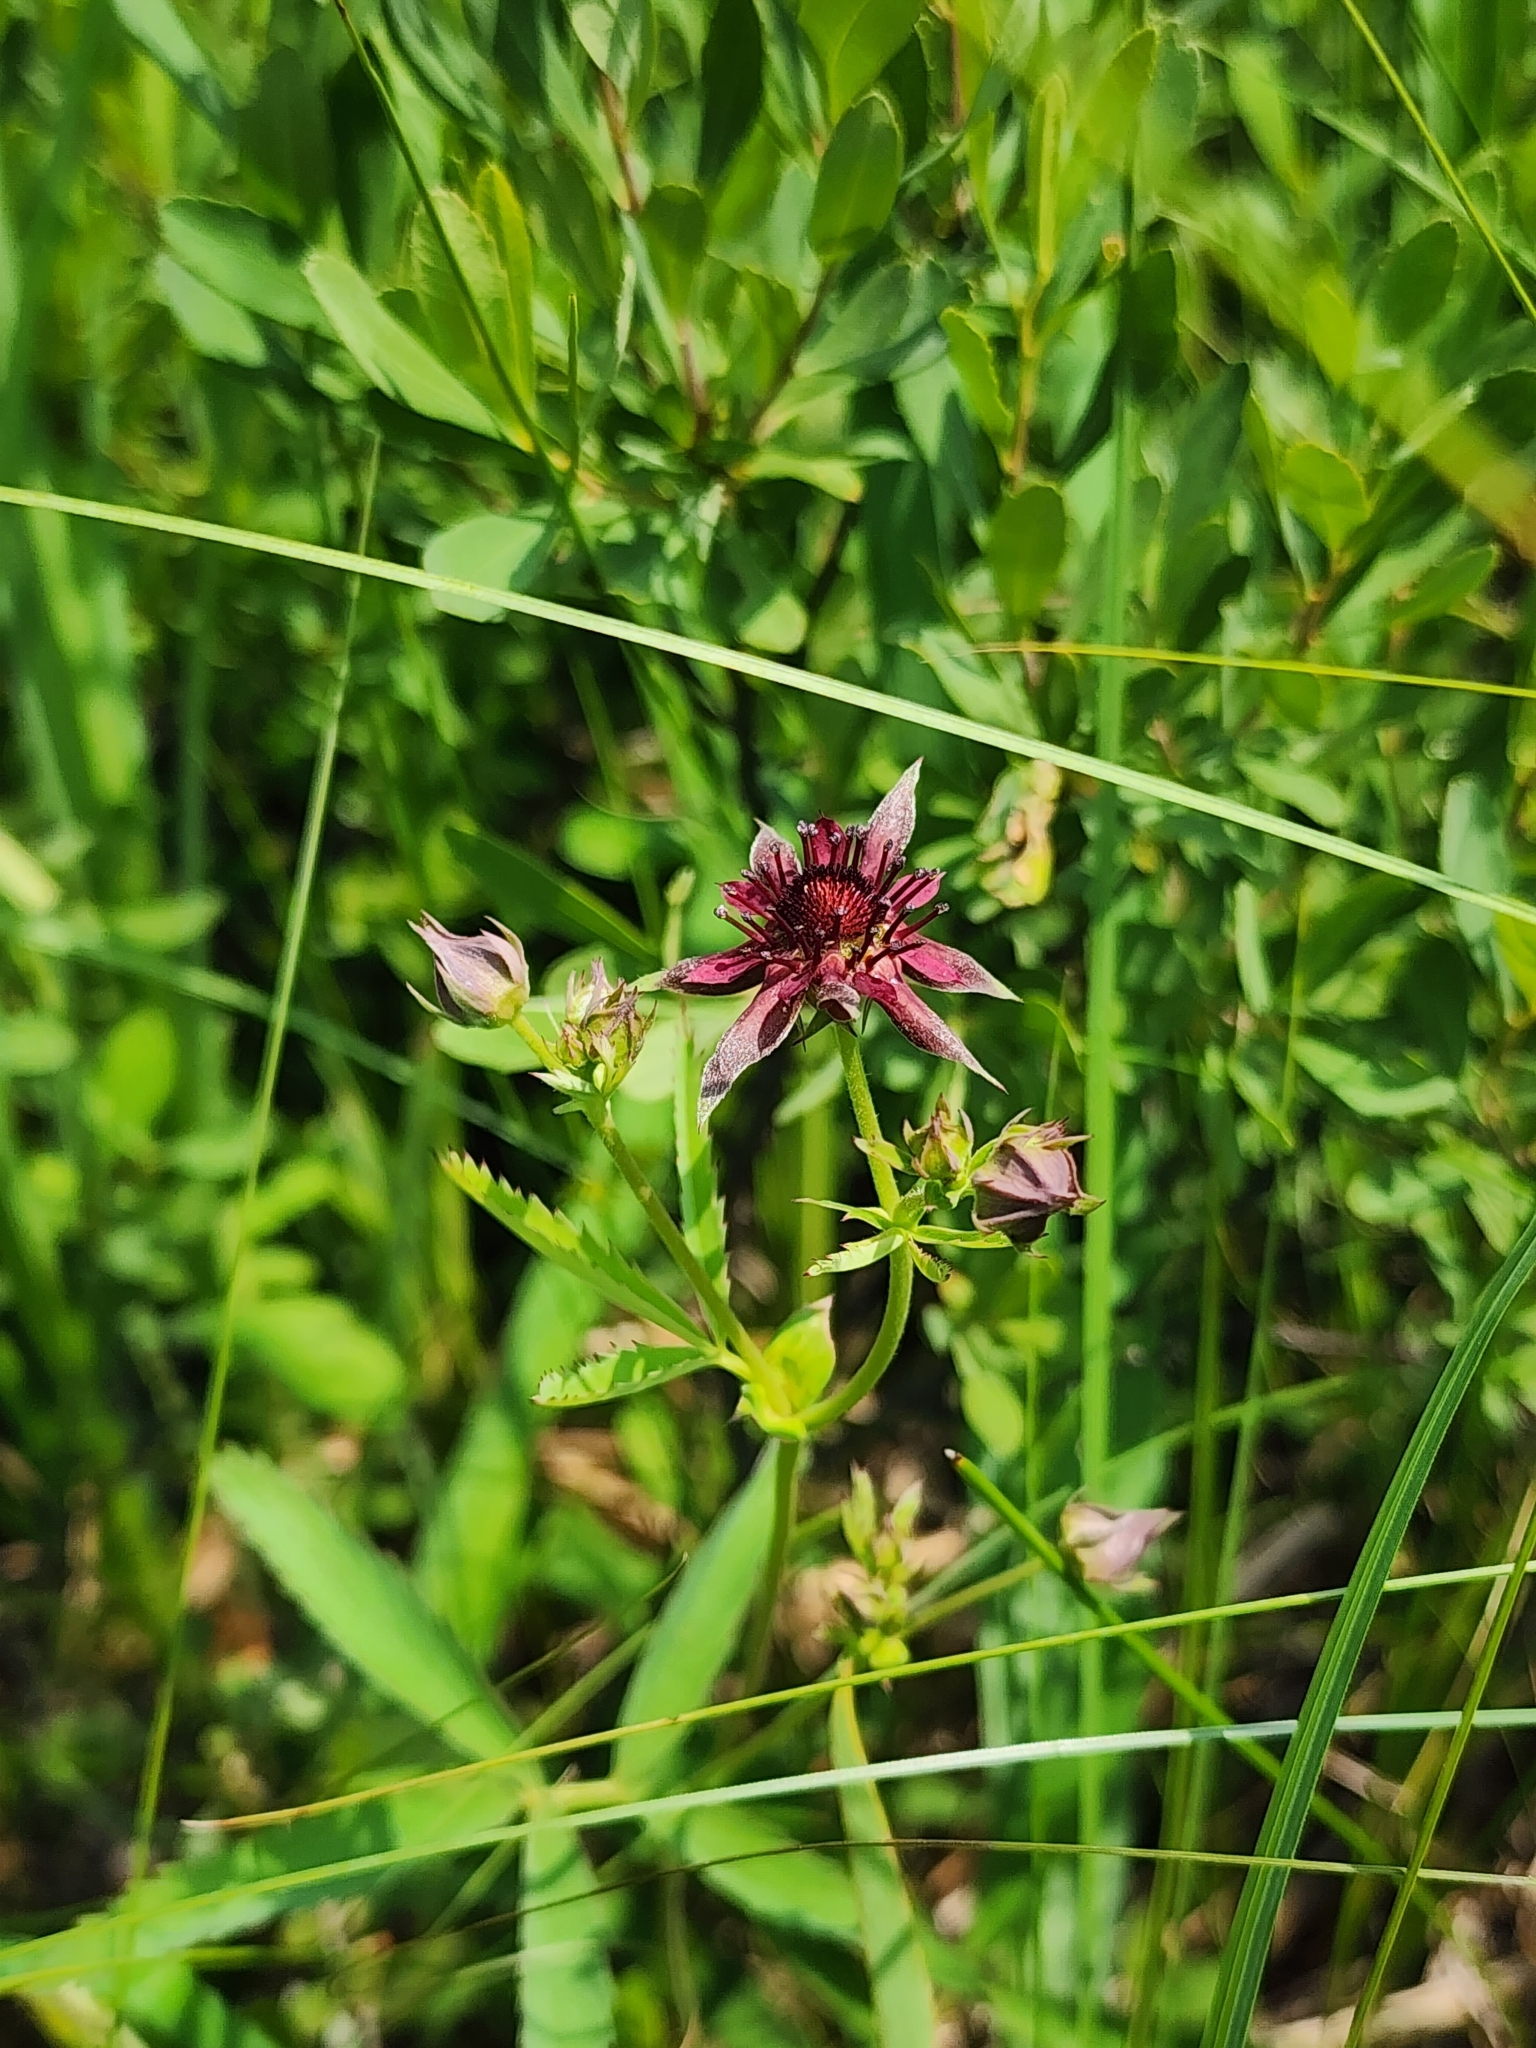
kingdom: Plantae
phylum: Tracheophyta
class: Magnoliopsida
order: Rosales
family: Rosaceae
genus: Comarum
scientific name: Comarum palustre
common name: Marsh cinquefoil
